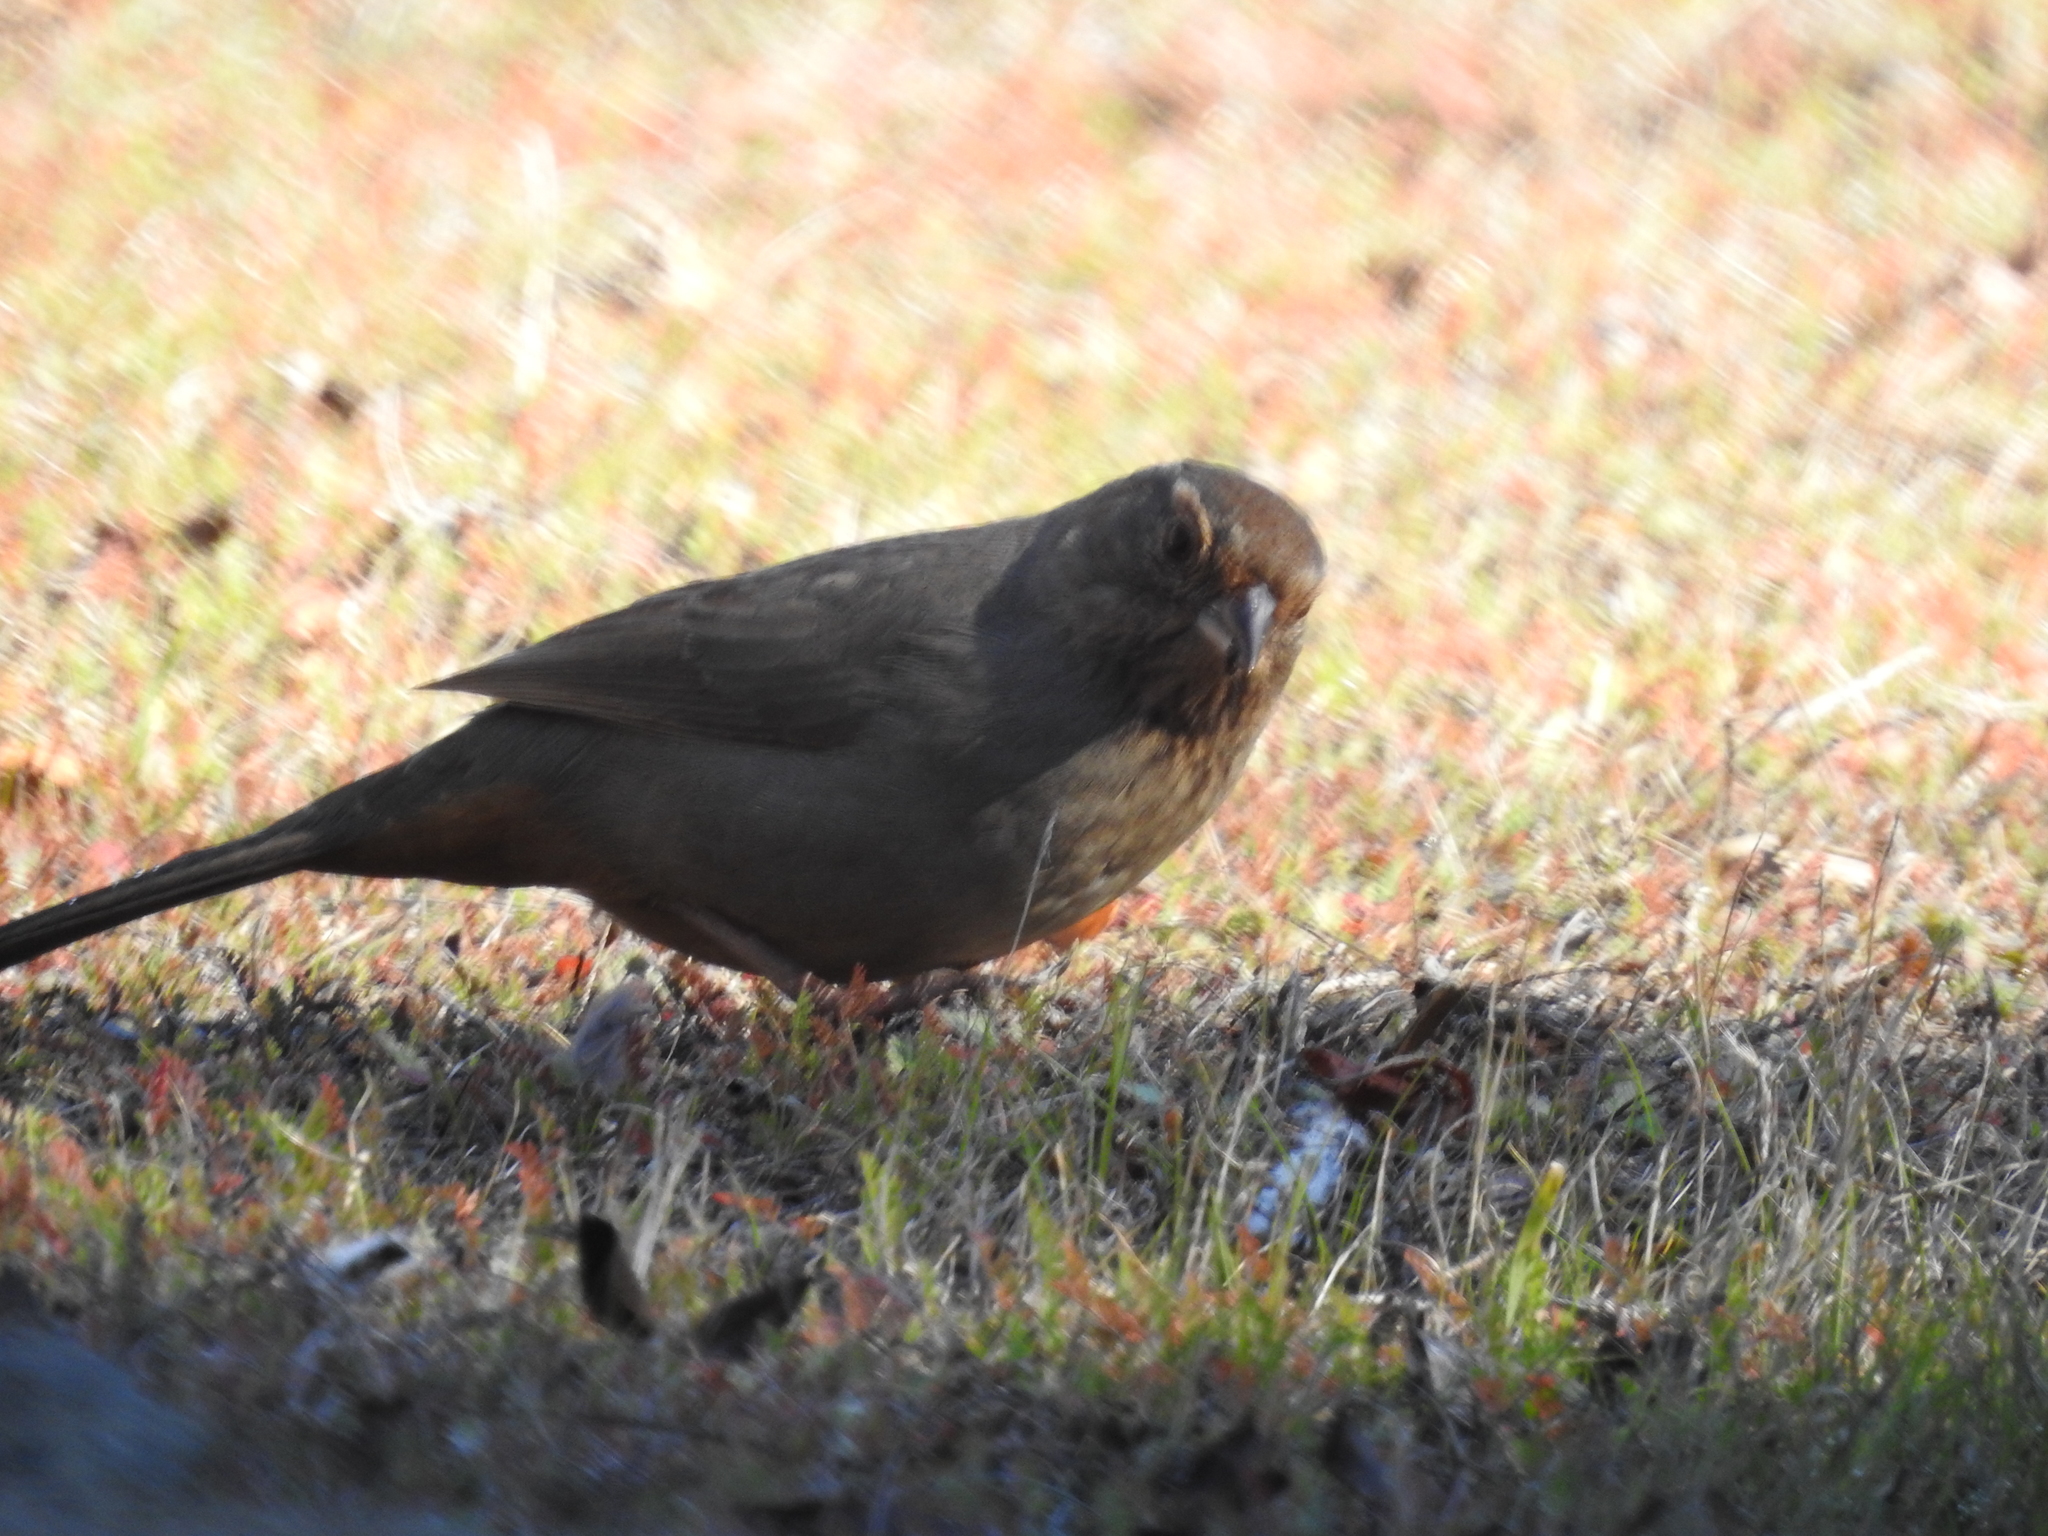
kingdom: Animalia
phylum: Chordata
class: Aves
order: Passeriformes
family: Passerellidae
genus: Melozone
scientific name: Melozone crissalis
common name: California towhee
